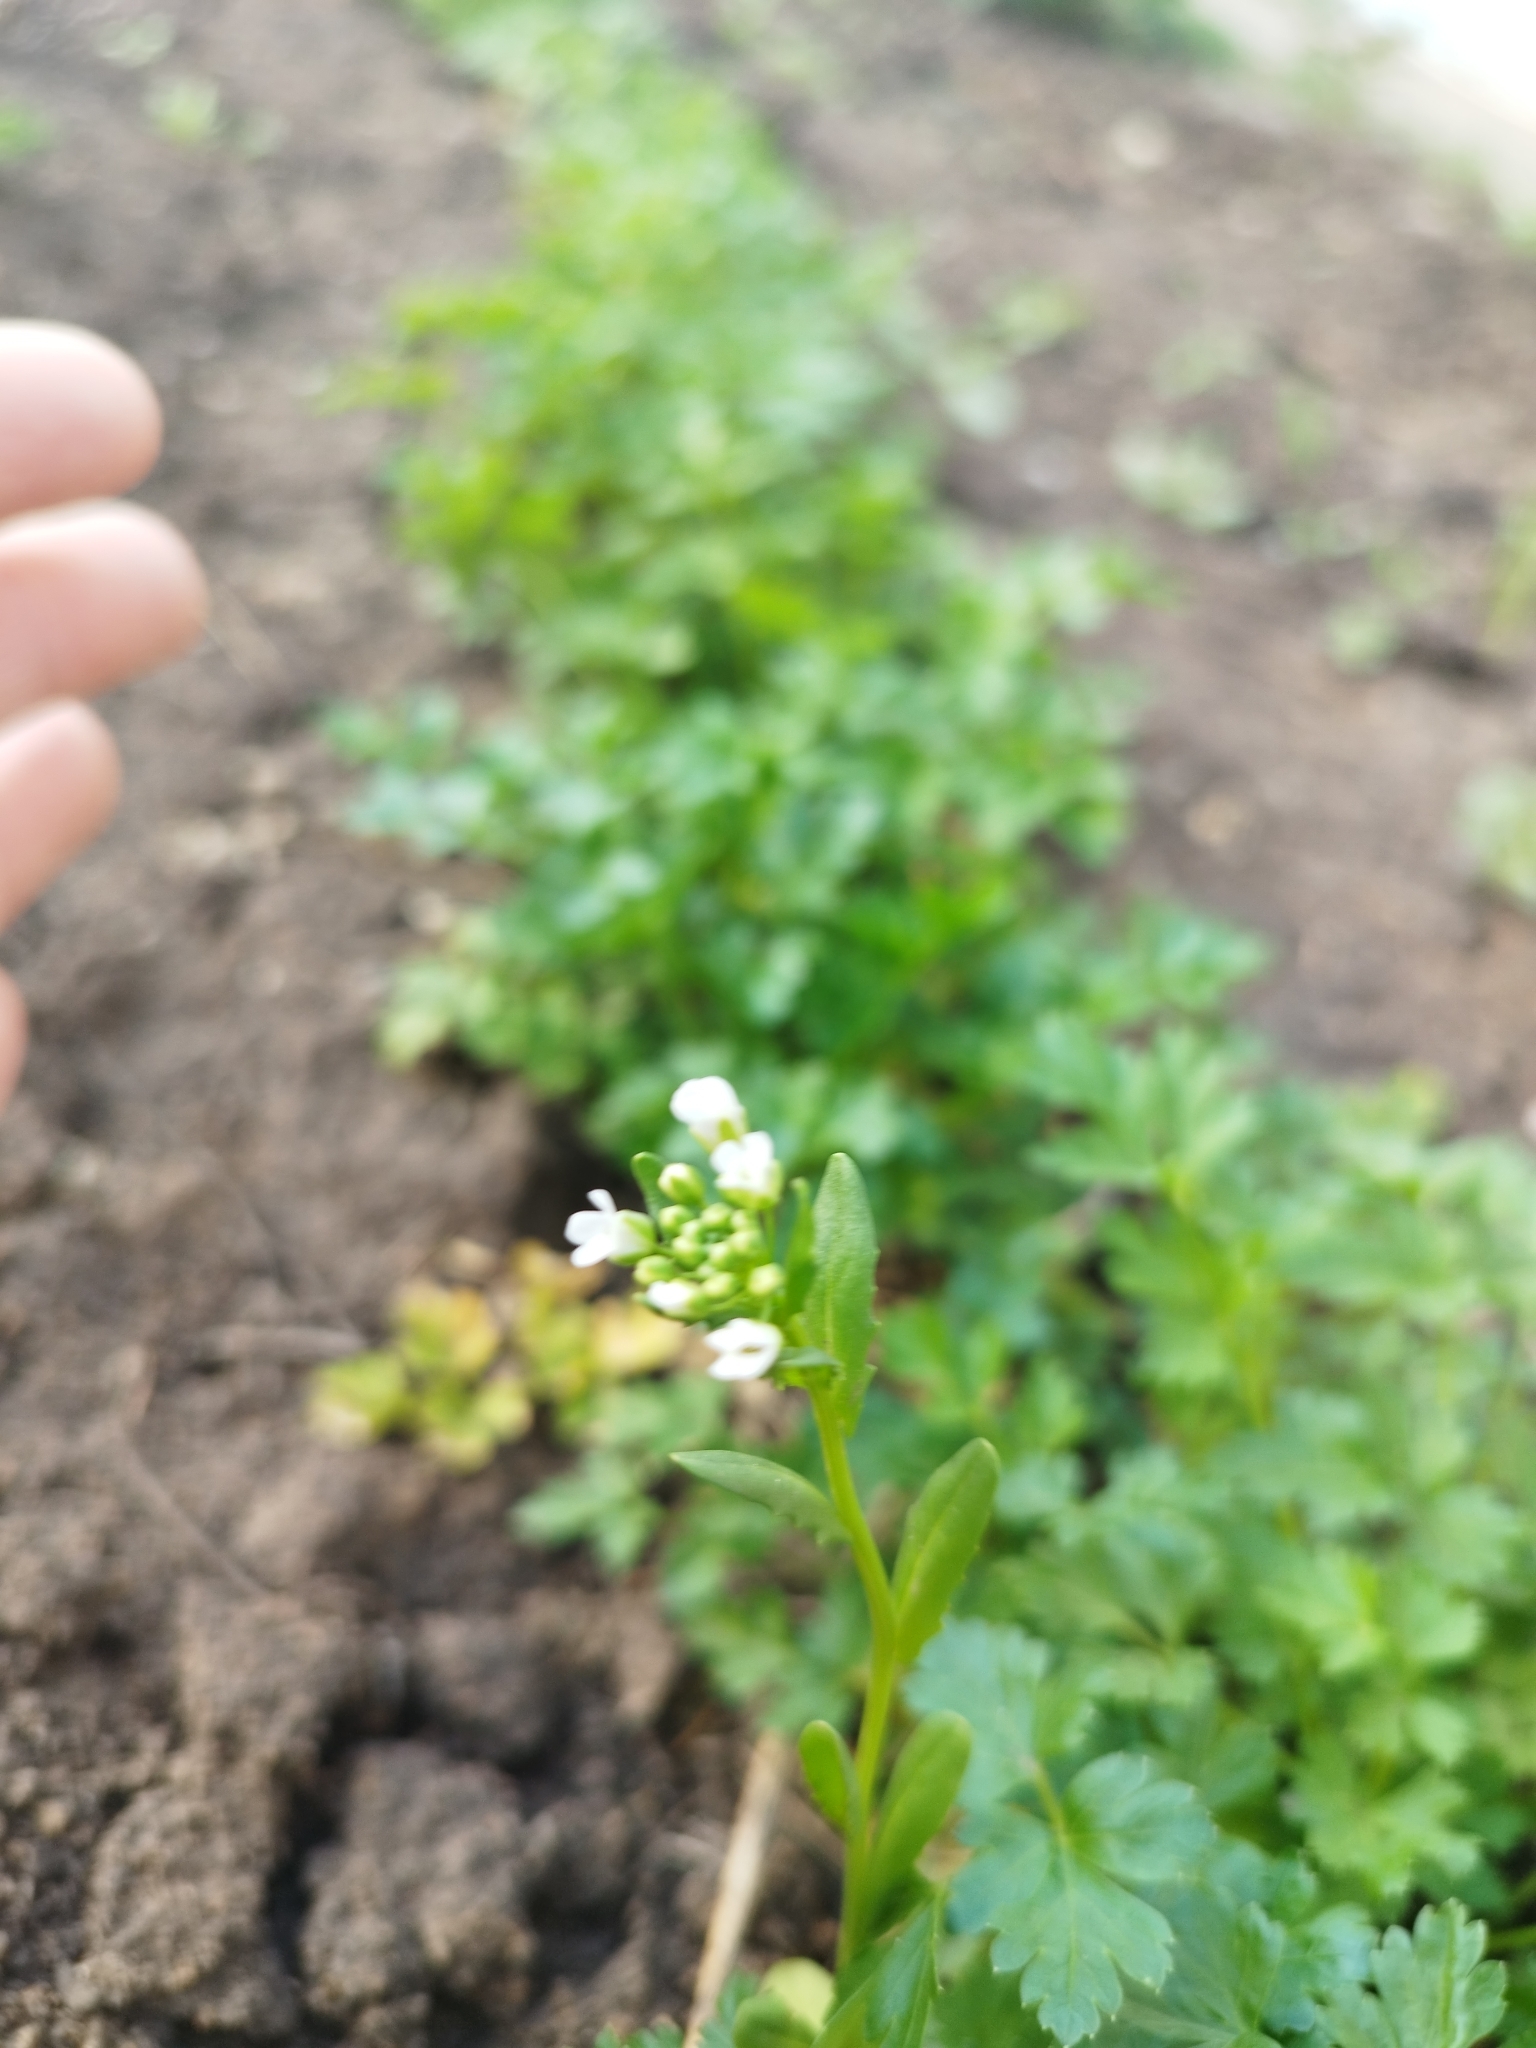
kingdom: Plantae
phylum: Tracheophyta
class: Magnoliopsida
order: Brassicales
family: Brassicaceae
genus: Thlaspi
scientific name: Thlaspi arvense
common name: Field pennycress
